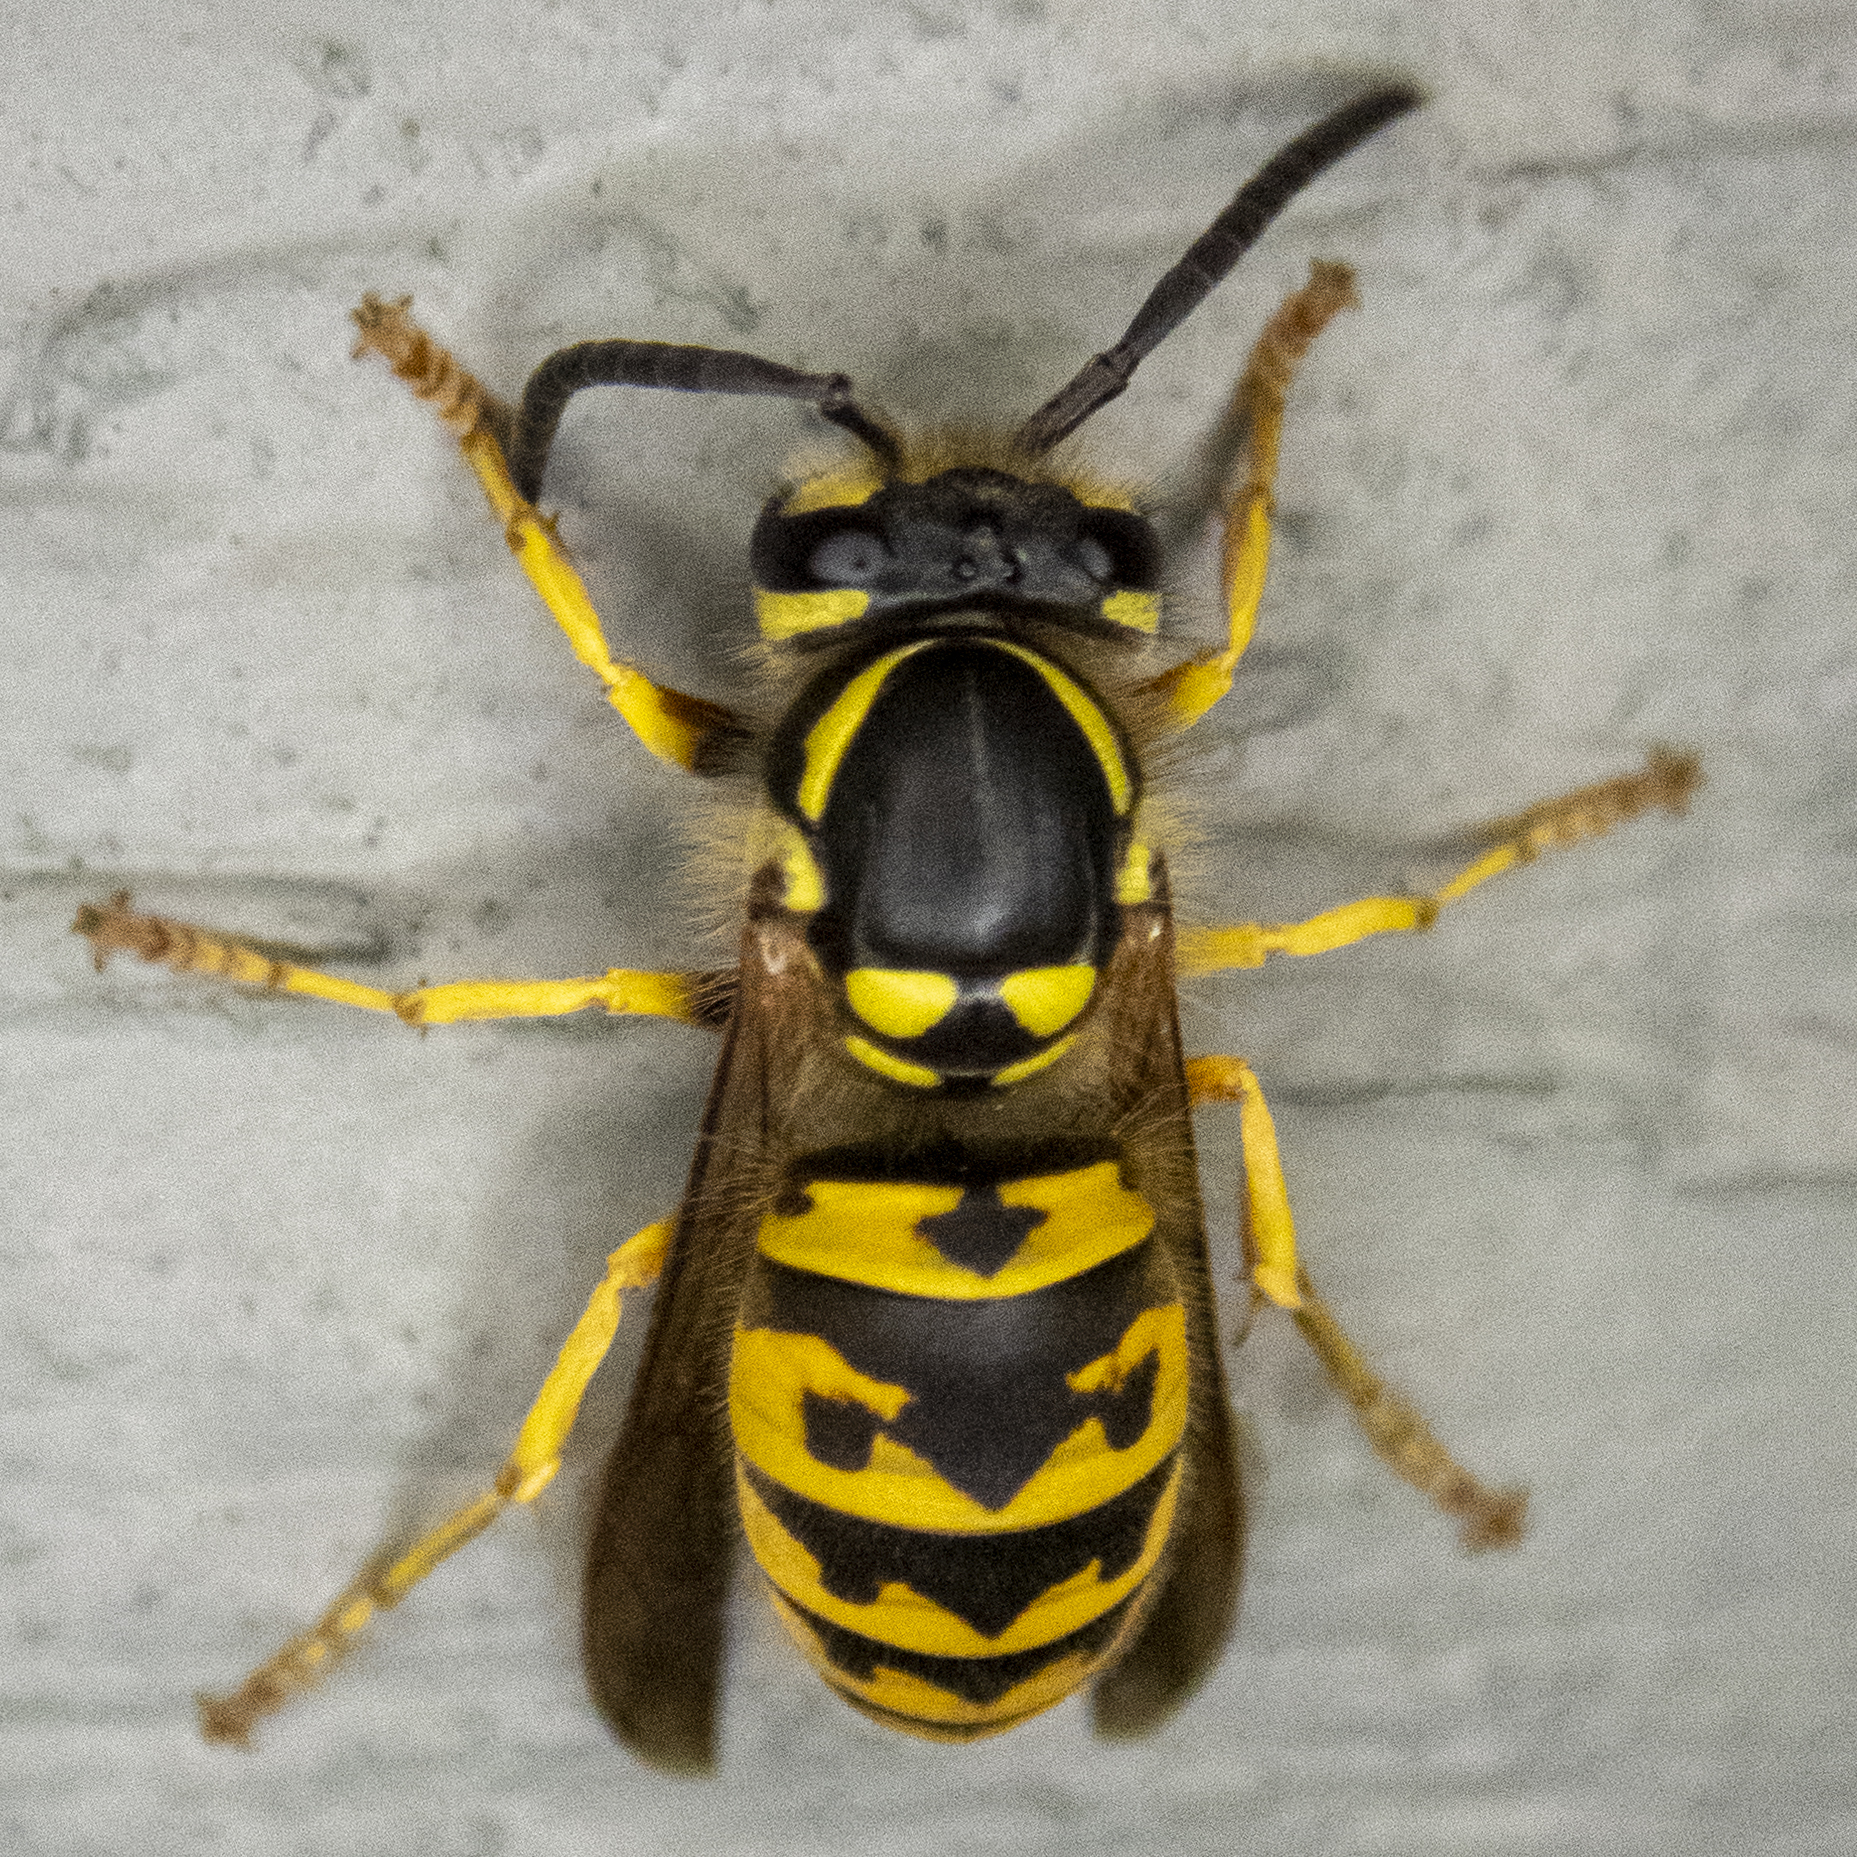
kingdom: Animalia
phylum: Arthropoda
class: Insecta
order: Hymenoptera
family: Vespidae
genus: Vespula
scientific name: Vespula germanica
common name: German wasp
